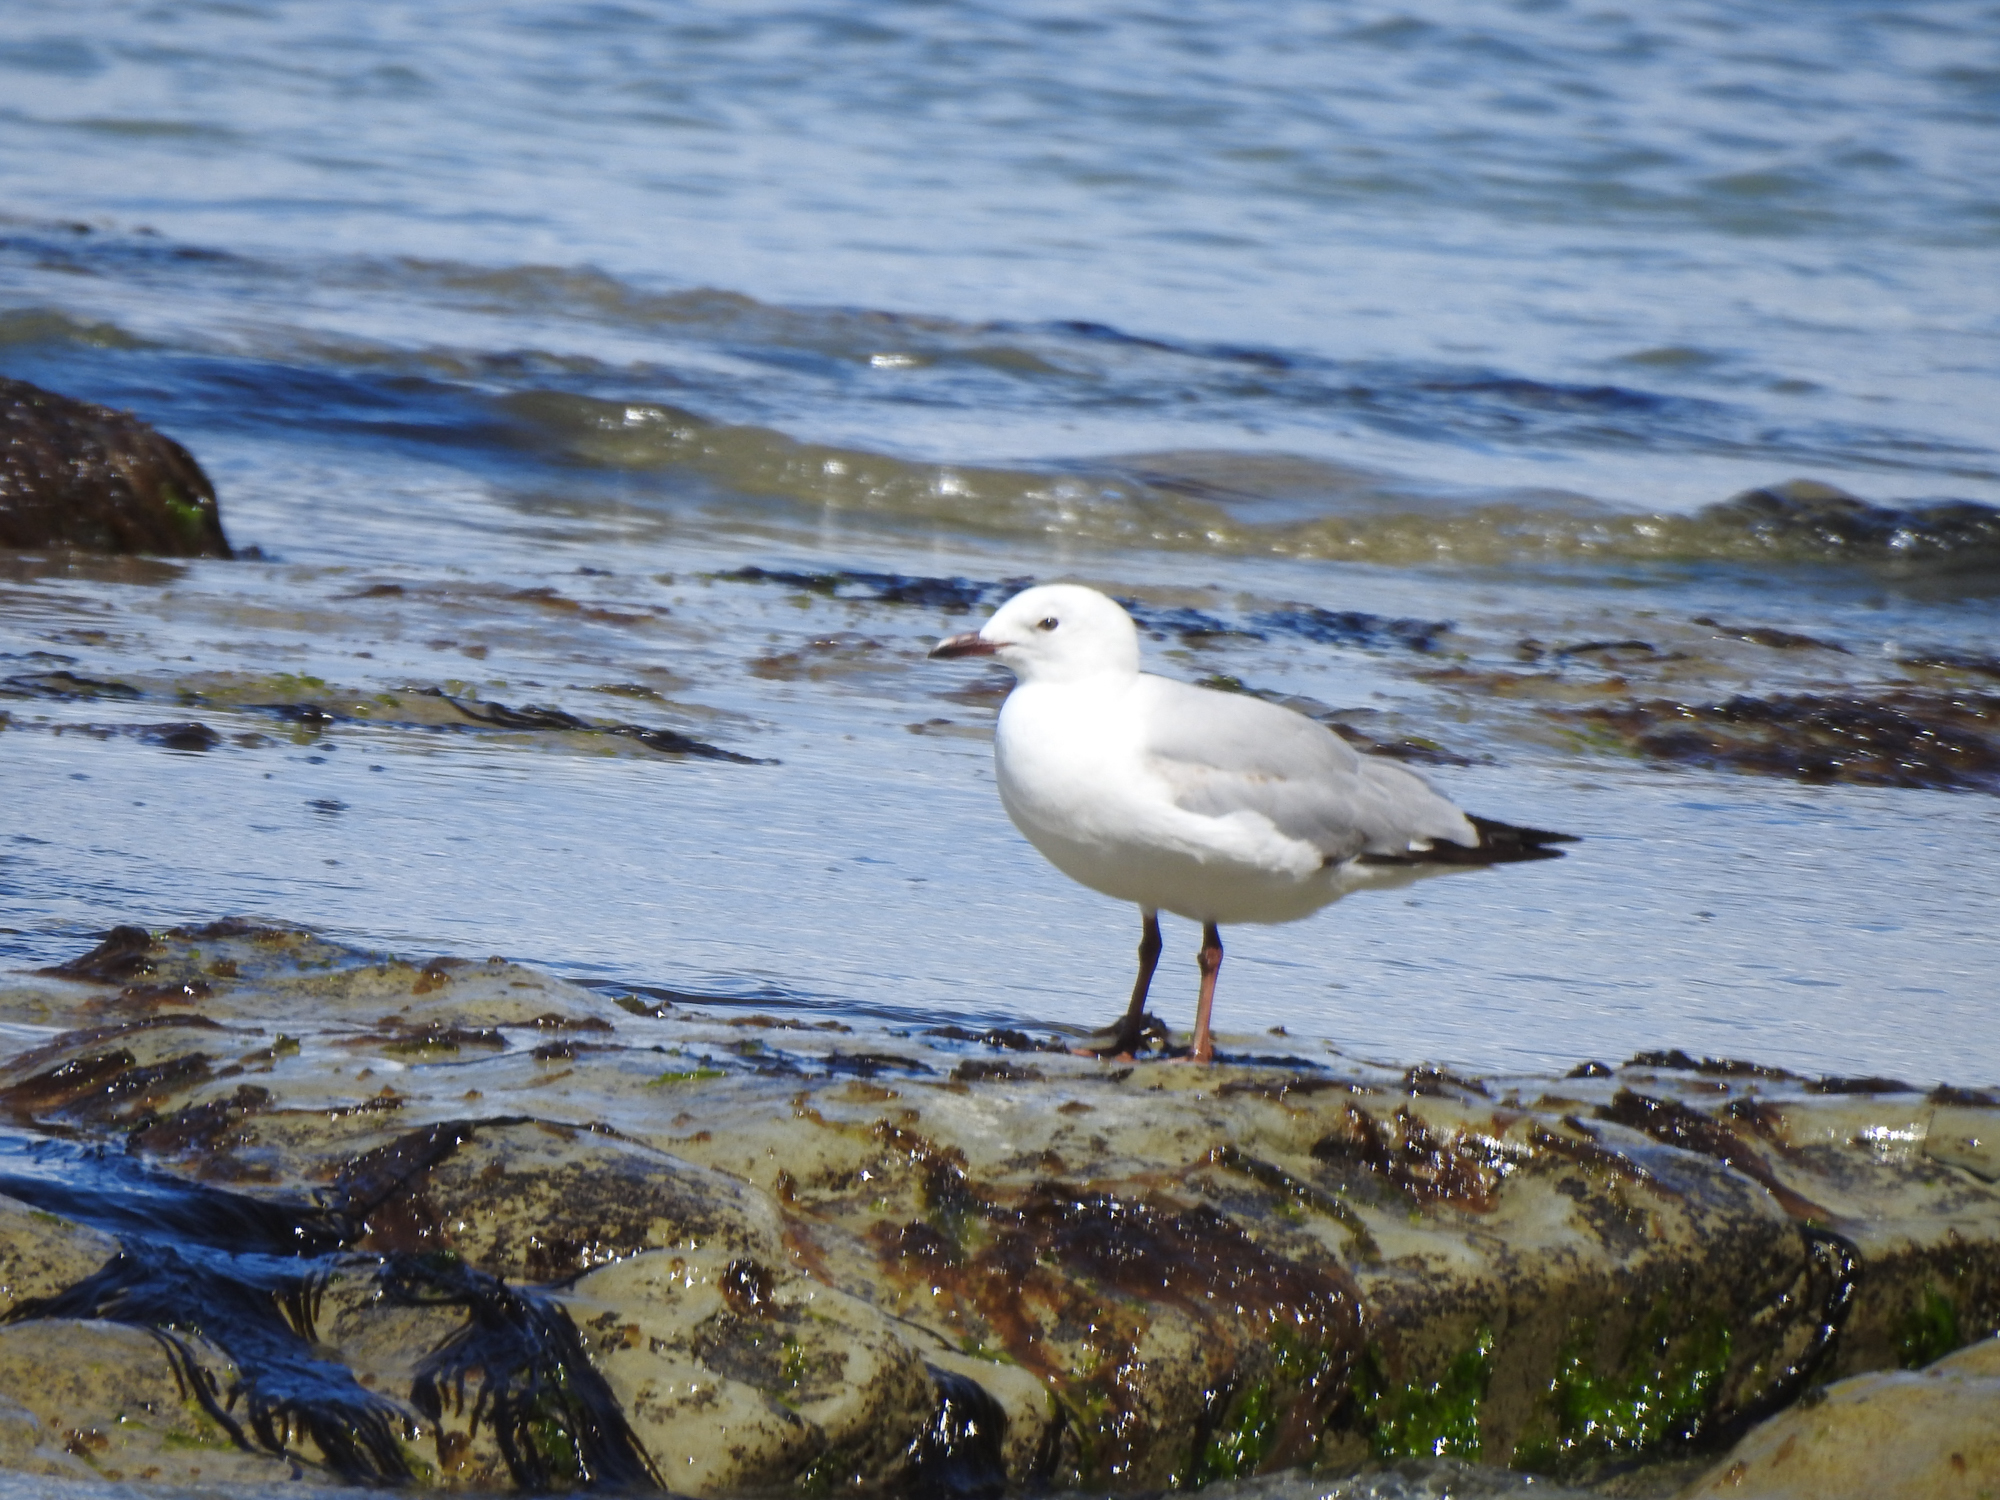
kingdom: Animalia
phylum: Chordata
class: Aves
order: Charadriiformes
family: Laridae
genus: Chroicocephalus
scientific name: Chroicocephalus novaehollandiae
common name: Silver gull
